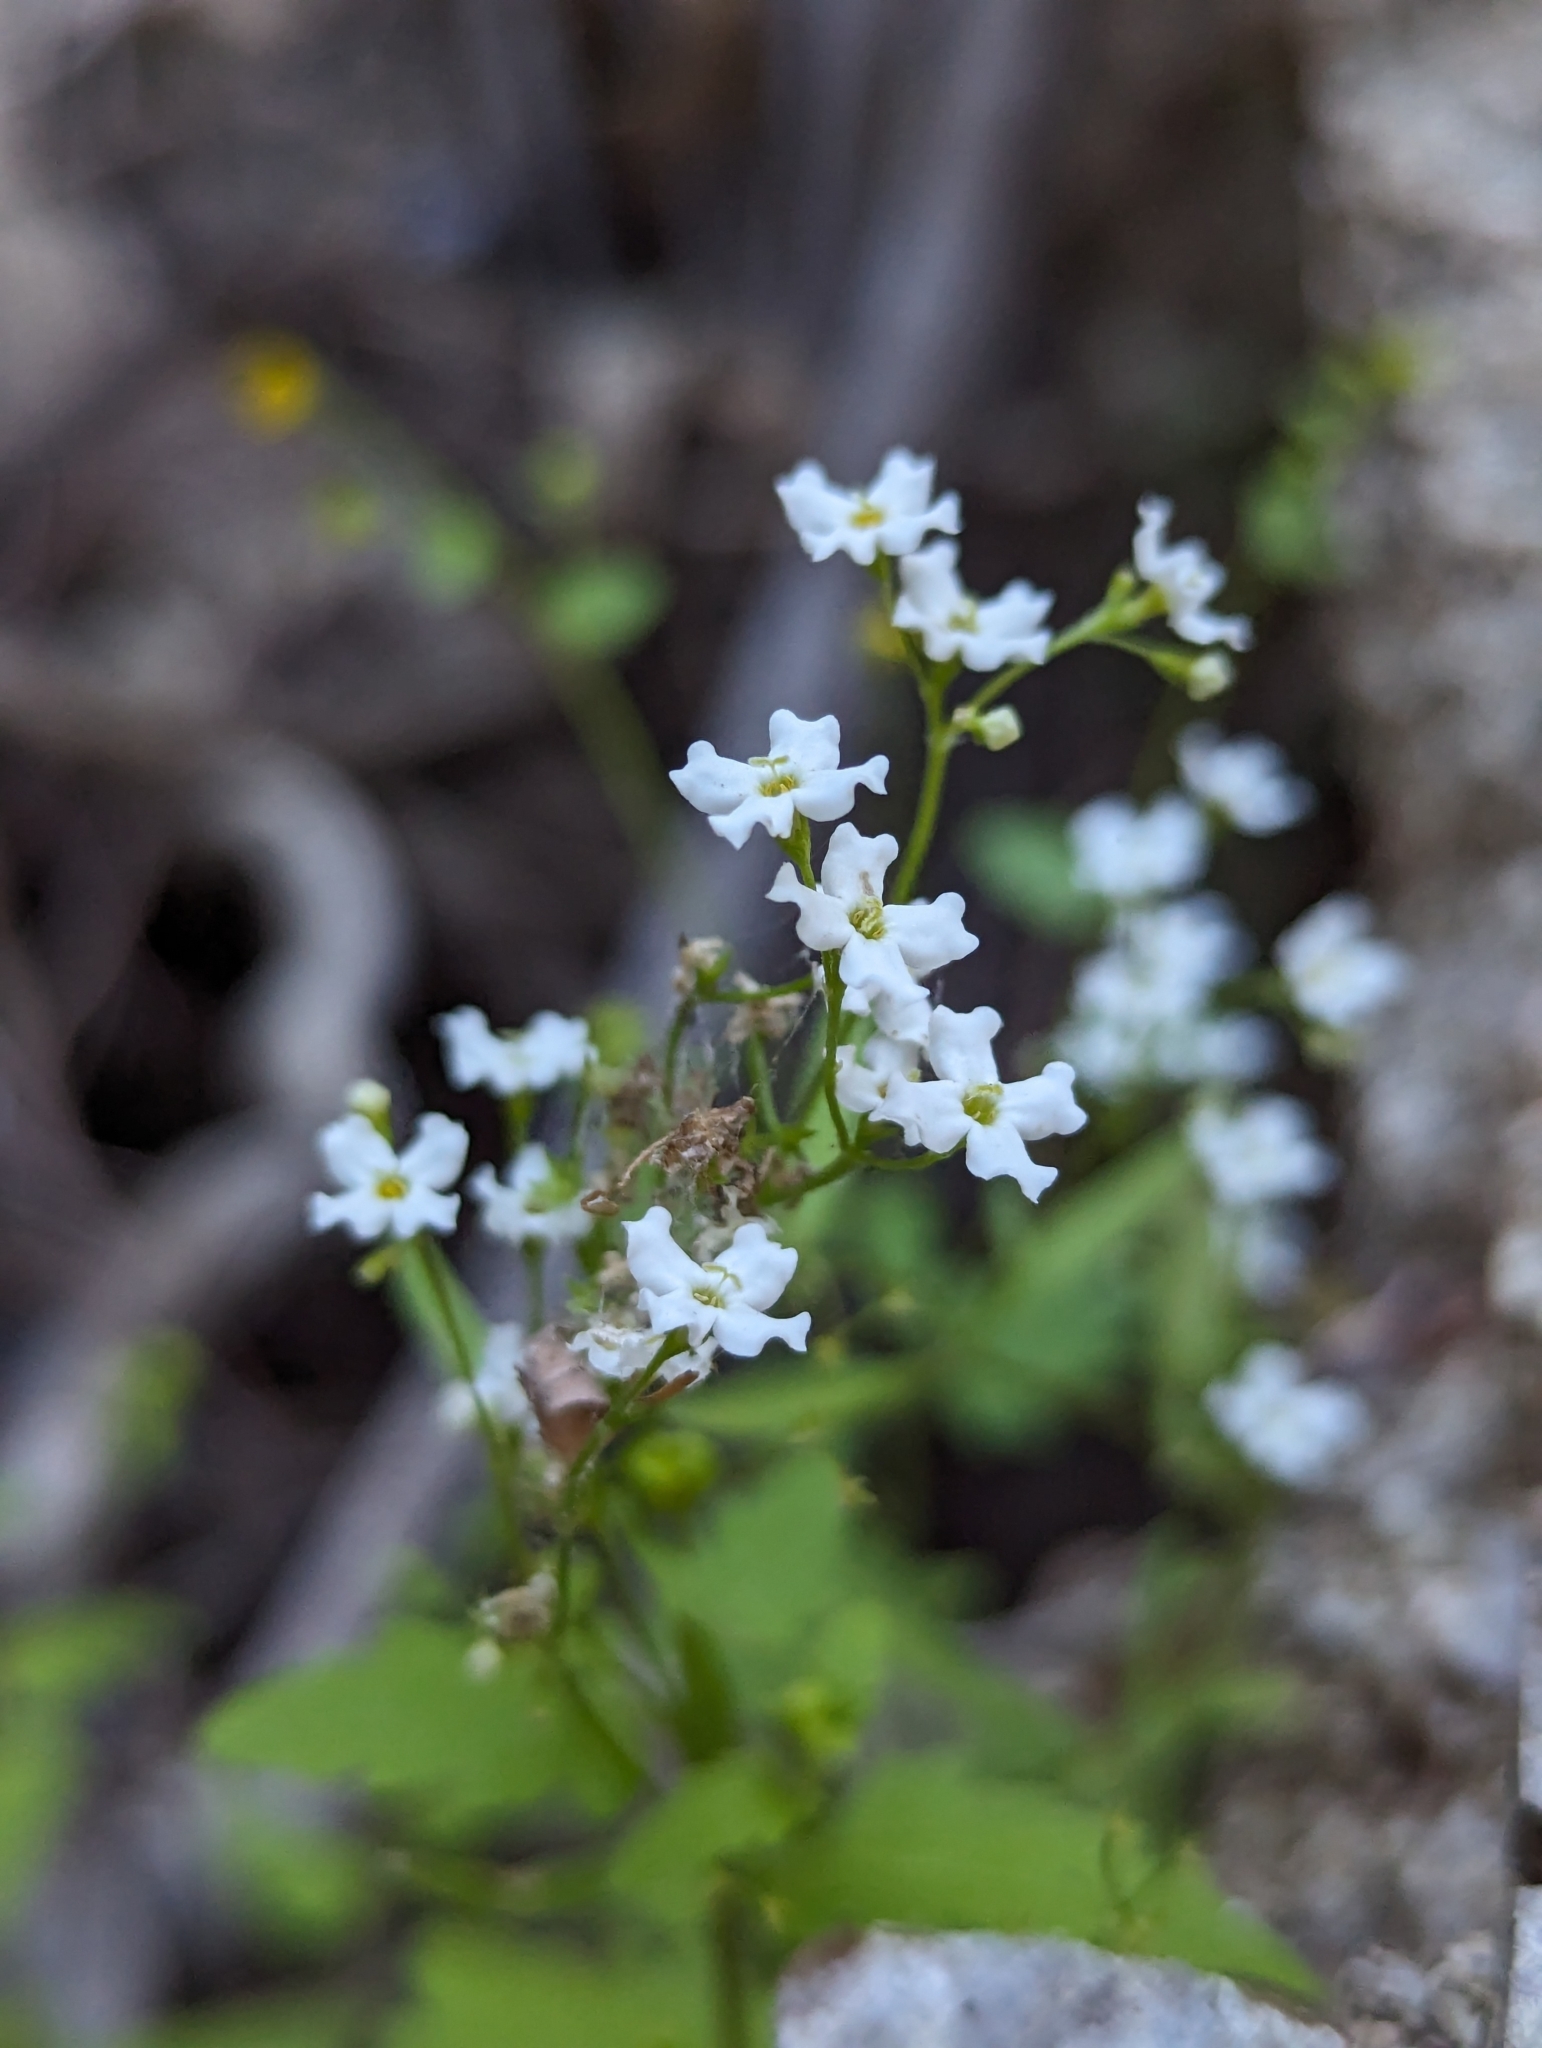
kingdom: Plantae
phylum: Tracheophyta
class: Magnoliopsida
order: Gentianales
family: Rubiaceae
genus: Stenotis
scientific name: Stenotis arenaria
